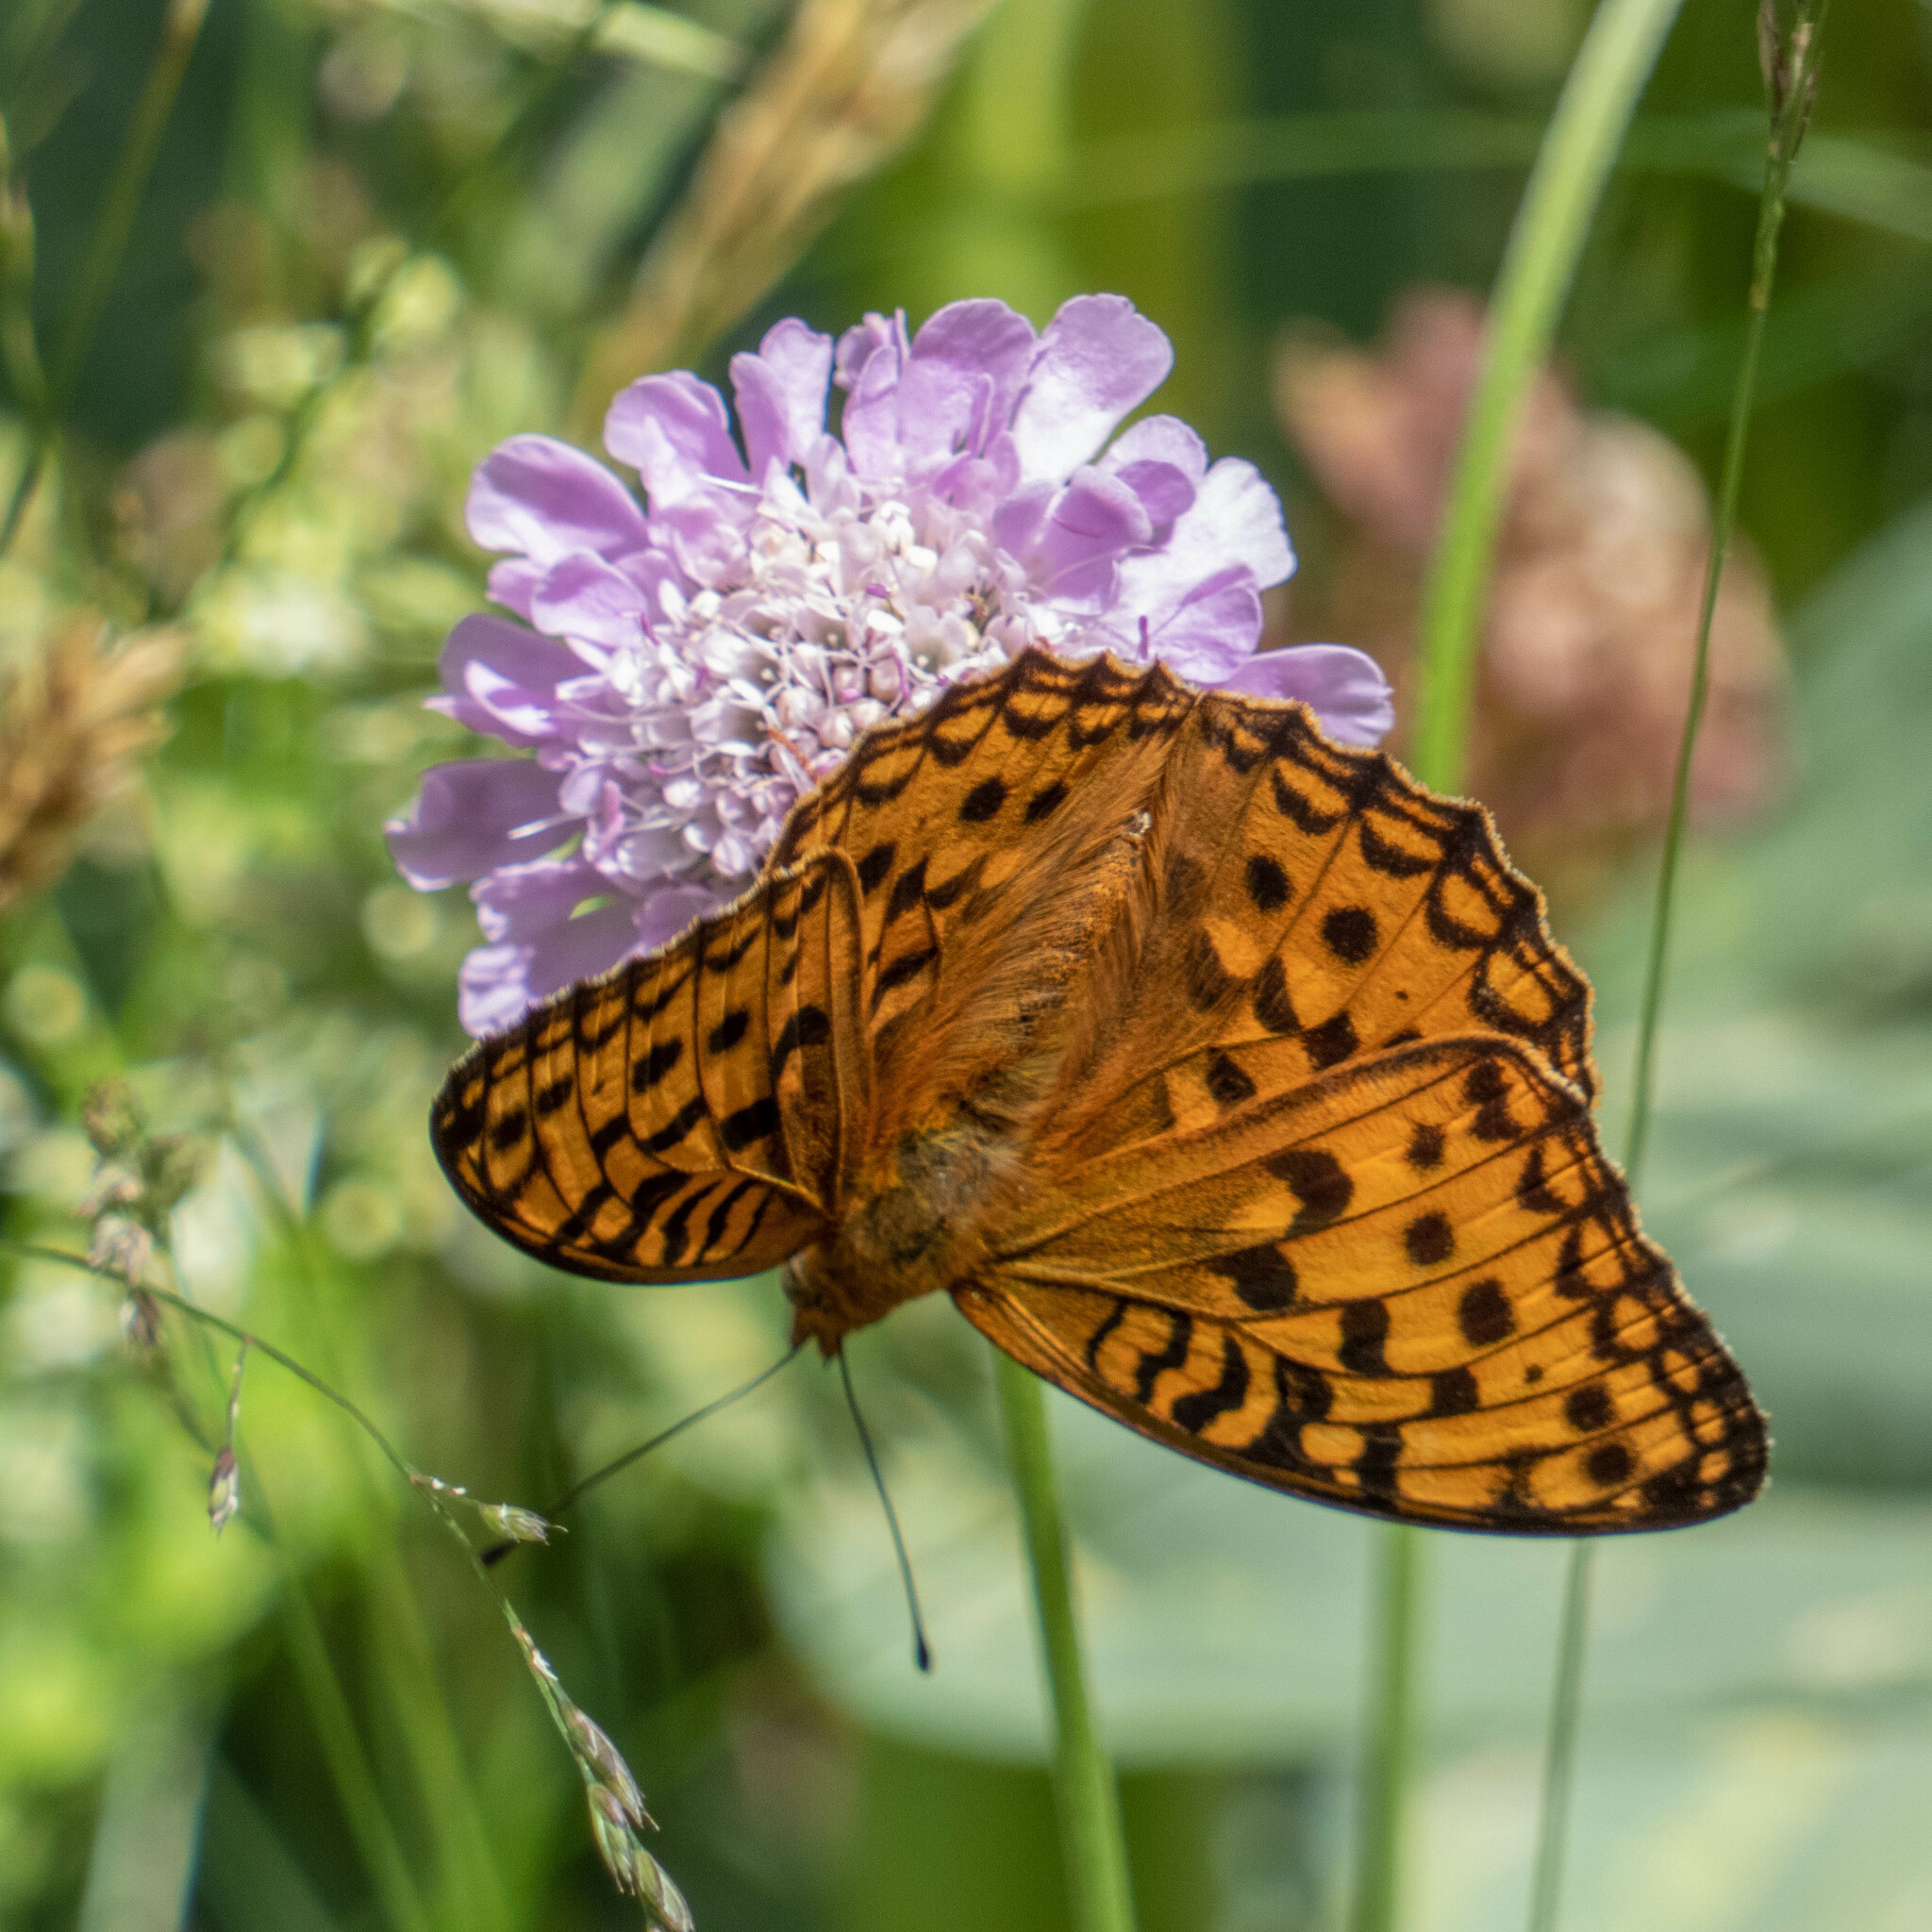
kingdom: Animalia
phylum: Arthropoda
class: Insecta
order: Lepidoptera
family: Nymphalidae
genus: Fabriciana
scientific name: Fabriciana adippe
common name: High brown fritillary
